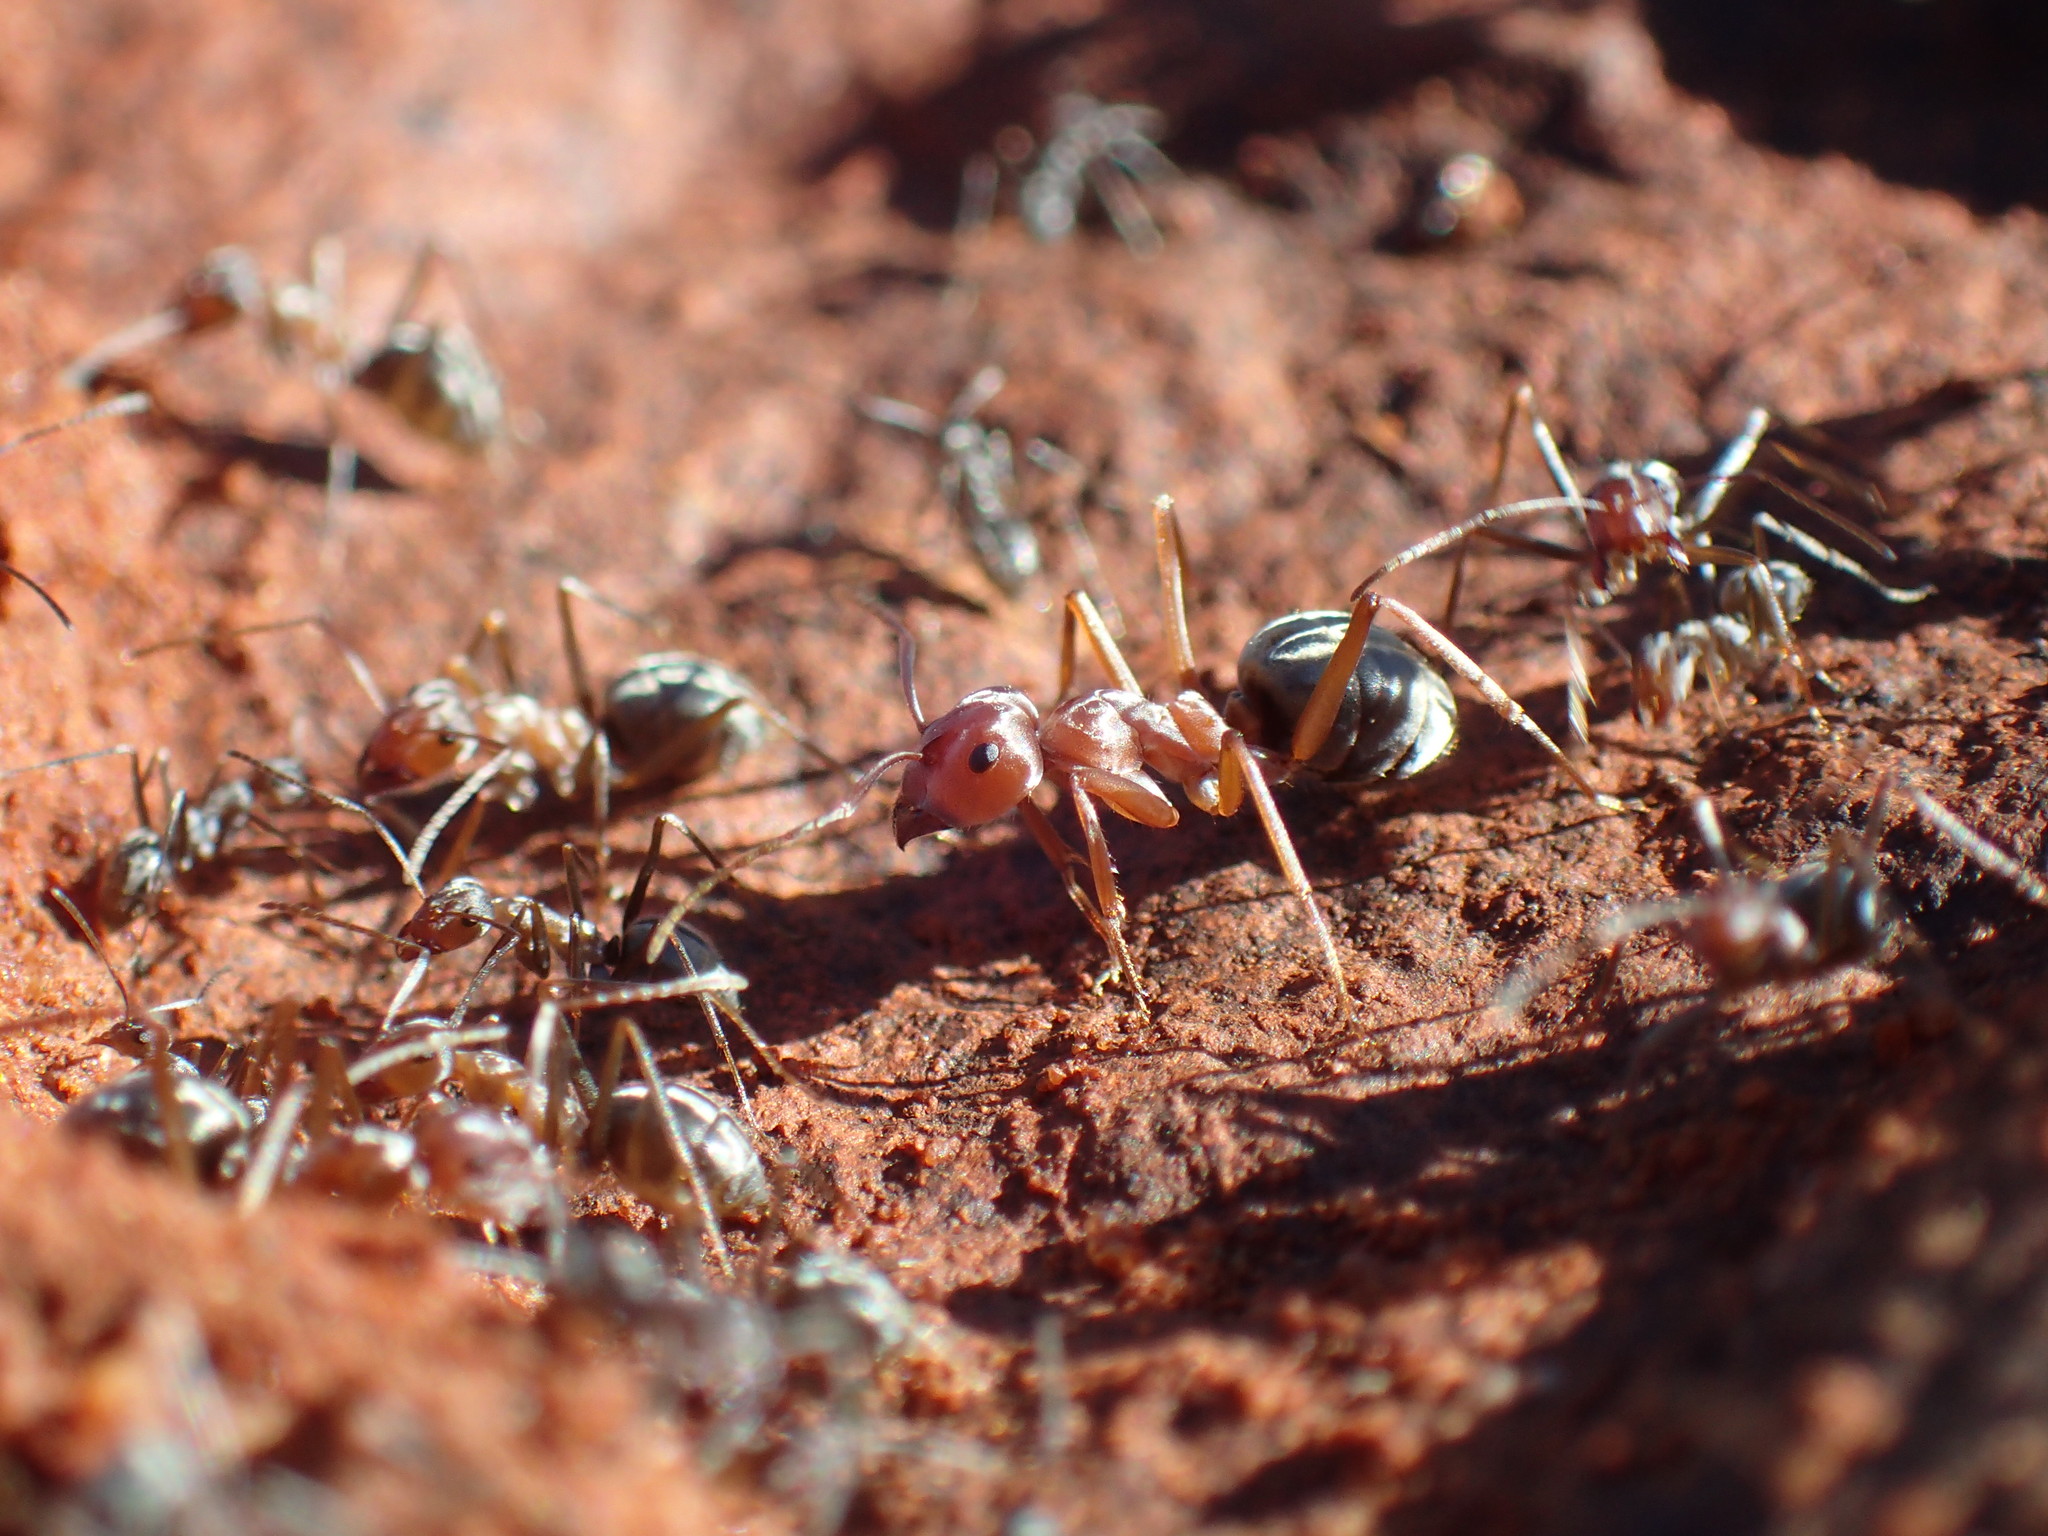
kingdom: Animalia
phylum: Arthropoda
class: Insecta
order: Hymenoptera
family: Formicidae
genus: Anoplolepis
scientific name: Anoplolepis custodiens
